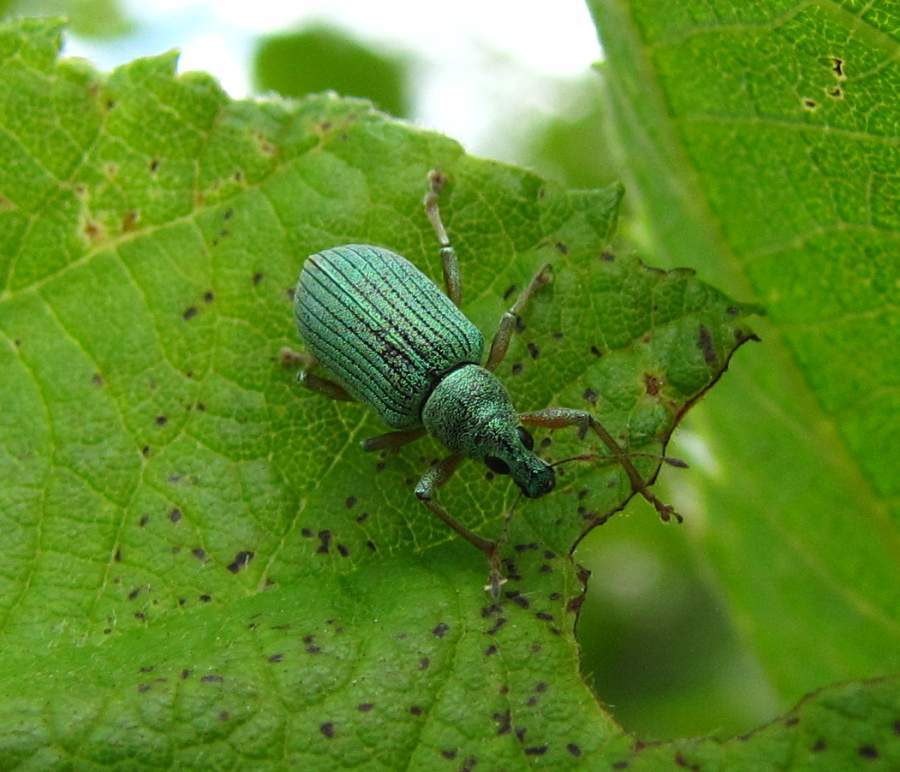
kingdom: Animalia
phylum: Arthropoda
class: Insecta
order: Coleoptera
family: Curculionidae
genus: Polydrusus
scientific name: Polydrusus formosus
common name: Weevil
